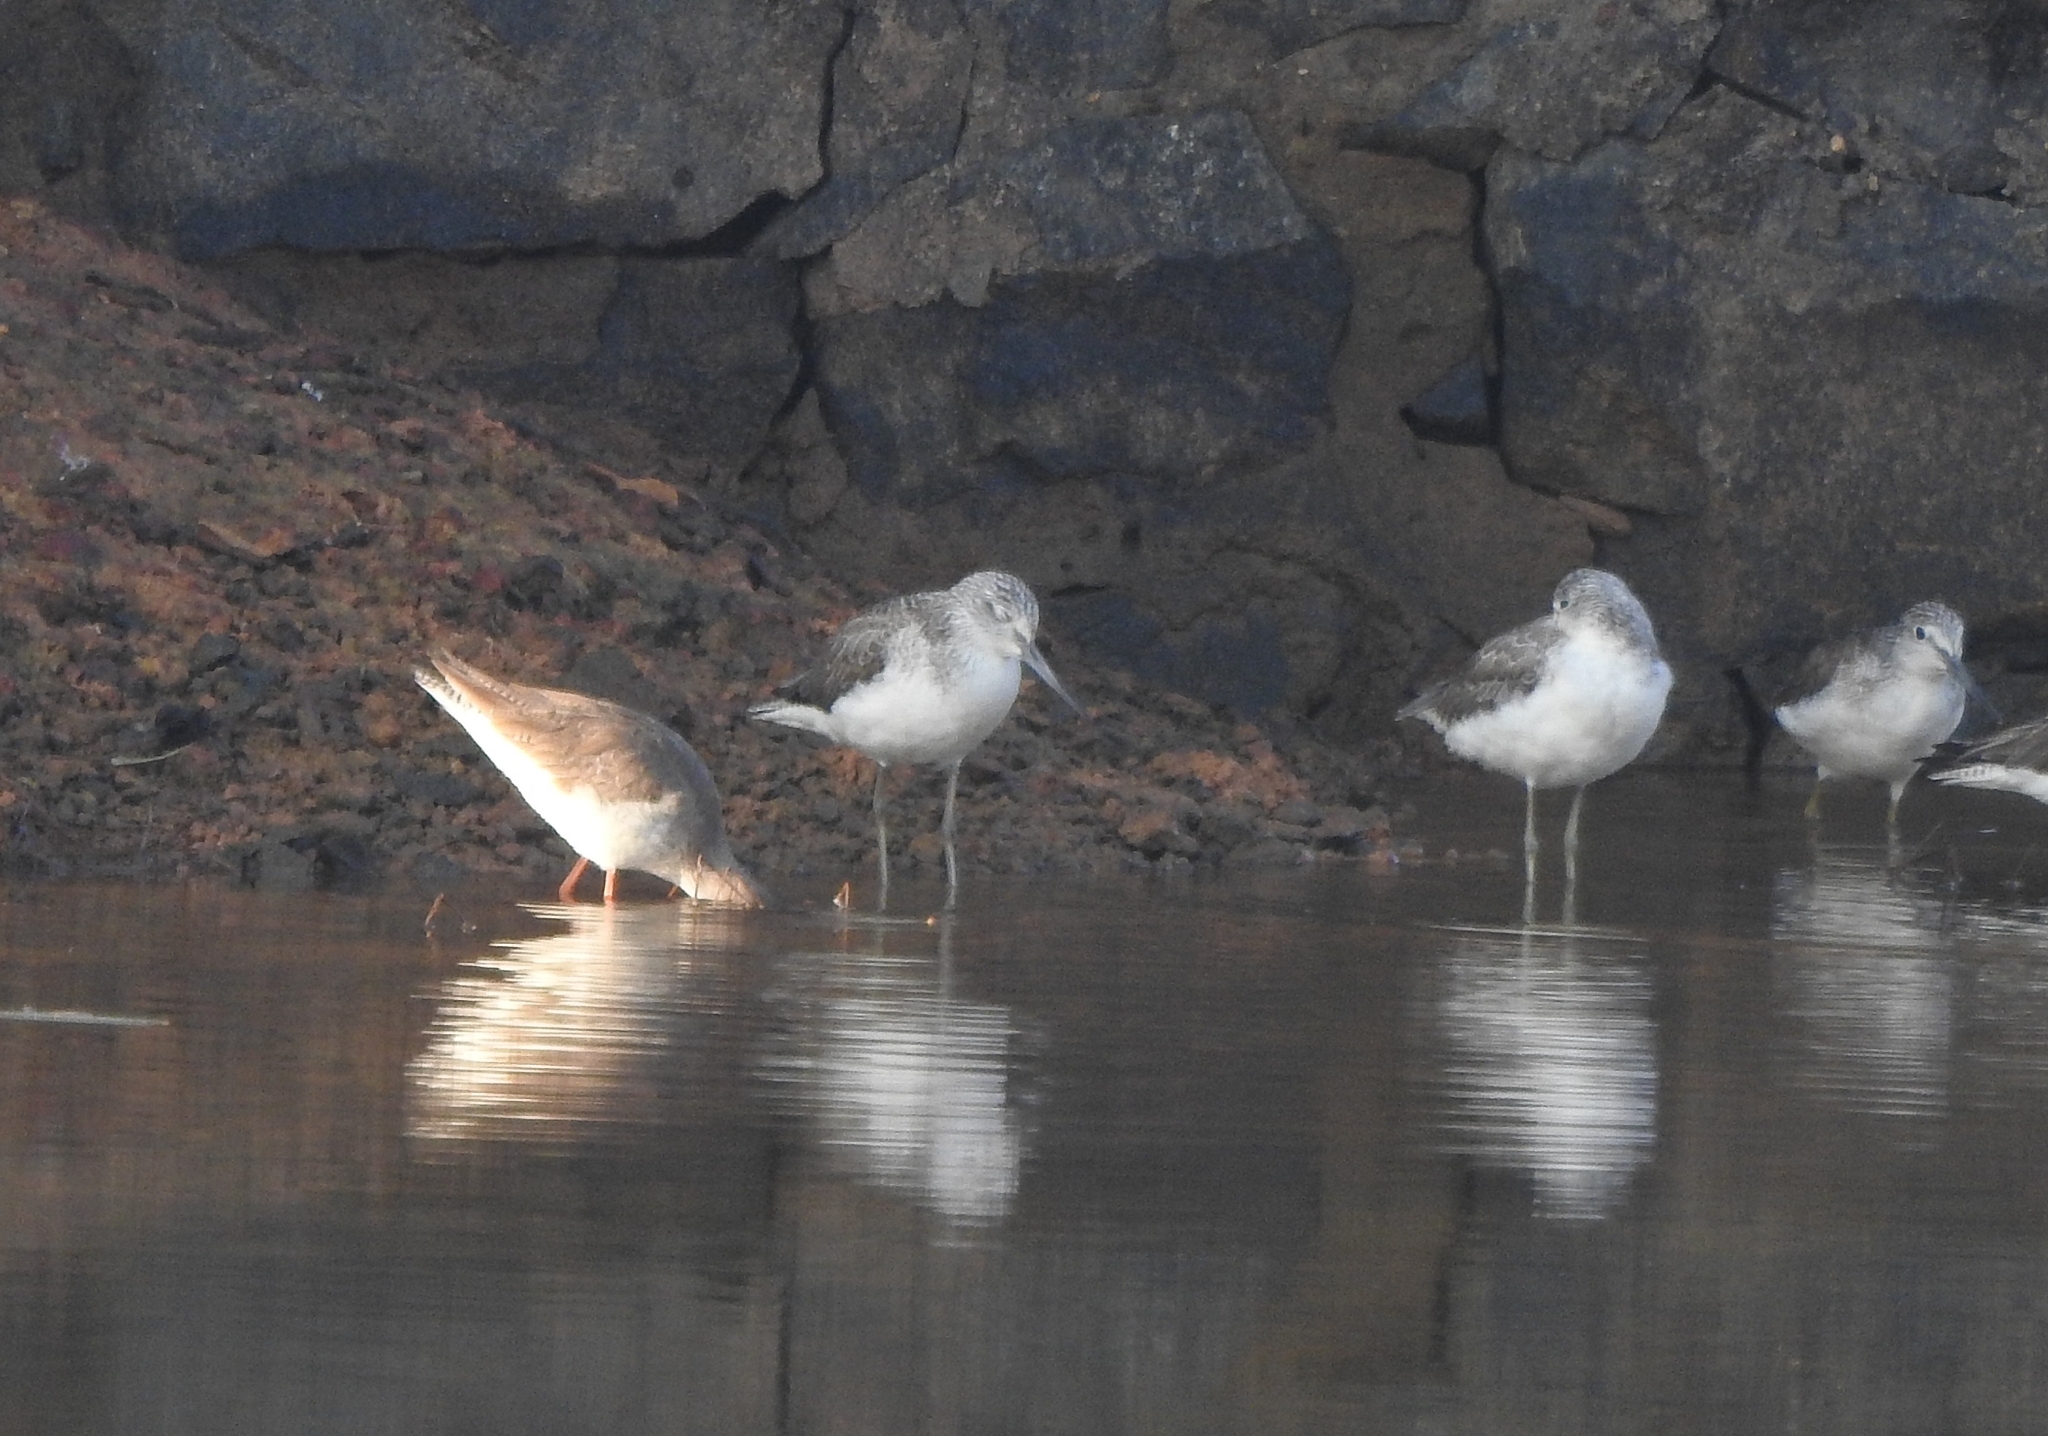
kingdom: Animalia
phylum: Chordata
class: Aves
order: Charadriiformes
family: Scolopacidae
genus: Tringa
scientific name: Tringa nebularia
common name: Common greenshank
